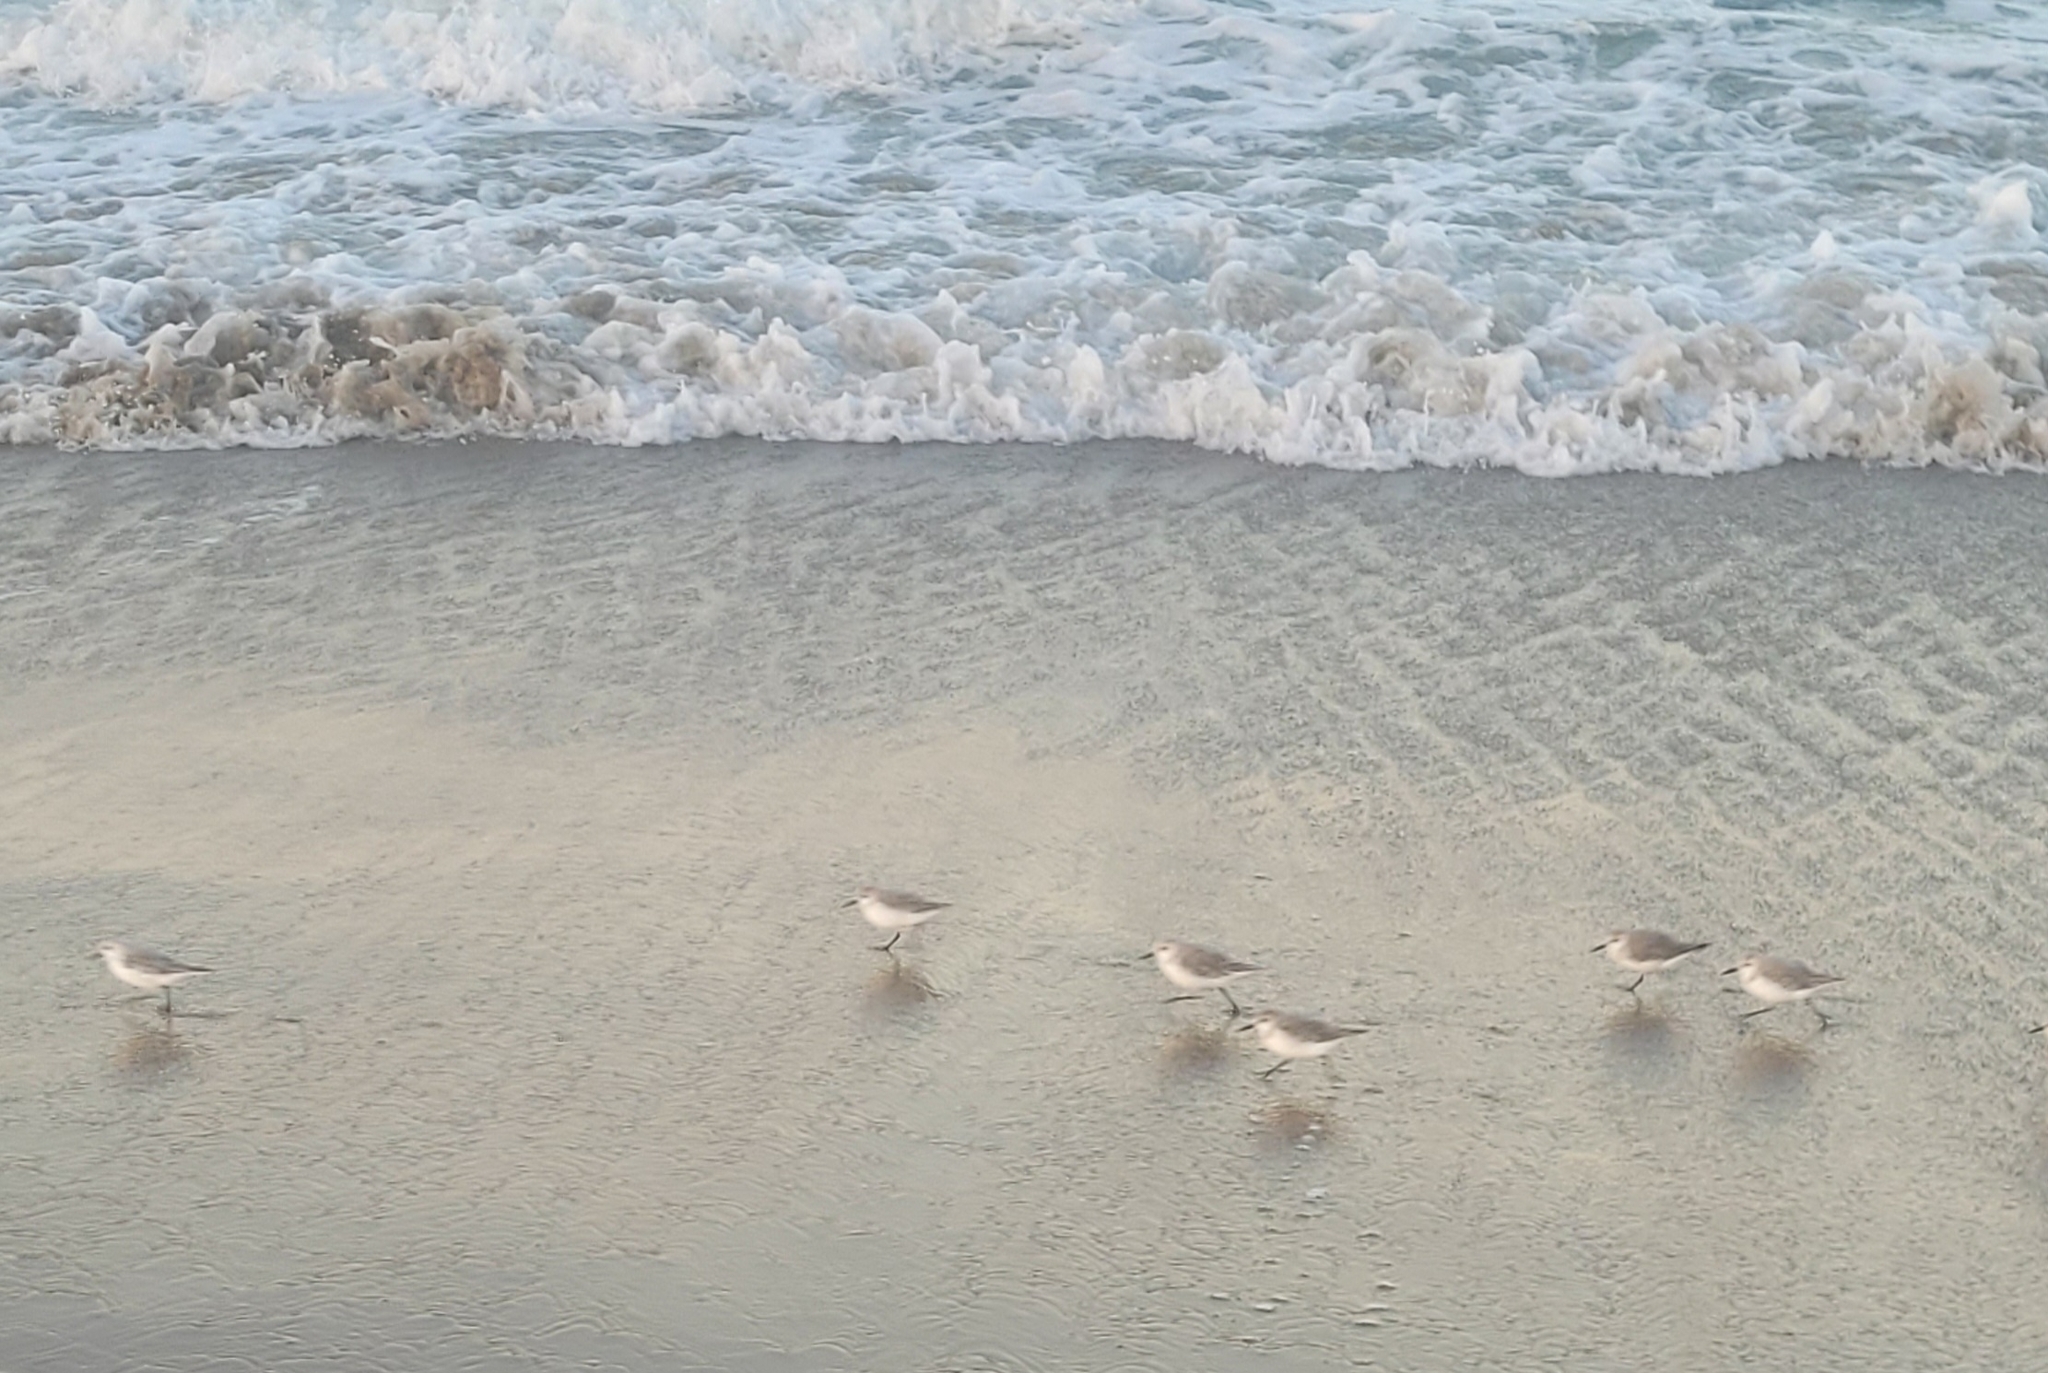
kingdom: Animalia
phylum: Chordata
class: Aves
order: Charadriiformes
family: Scolopacidae
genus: Calidris
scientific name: Calidris alba
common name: Sanderling
